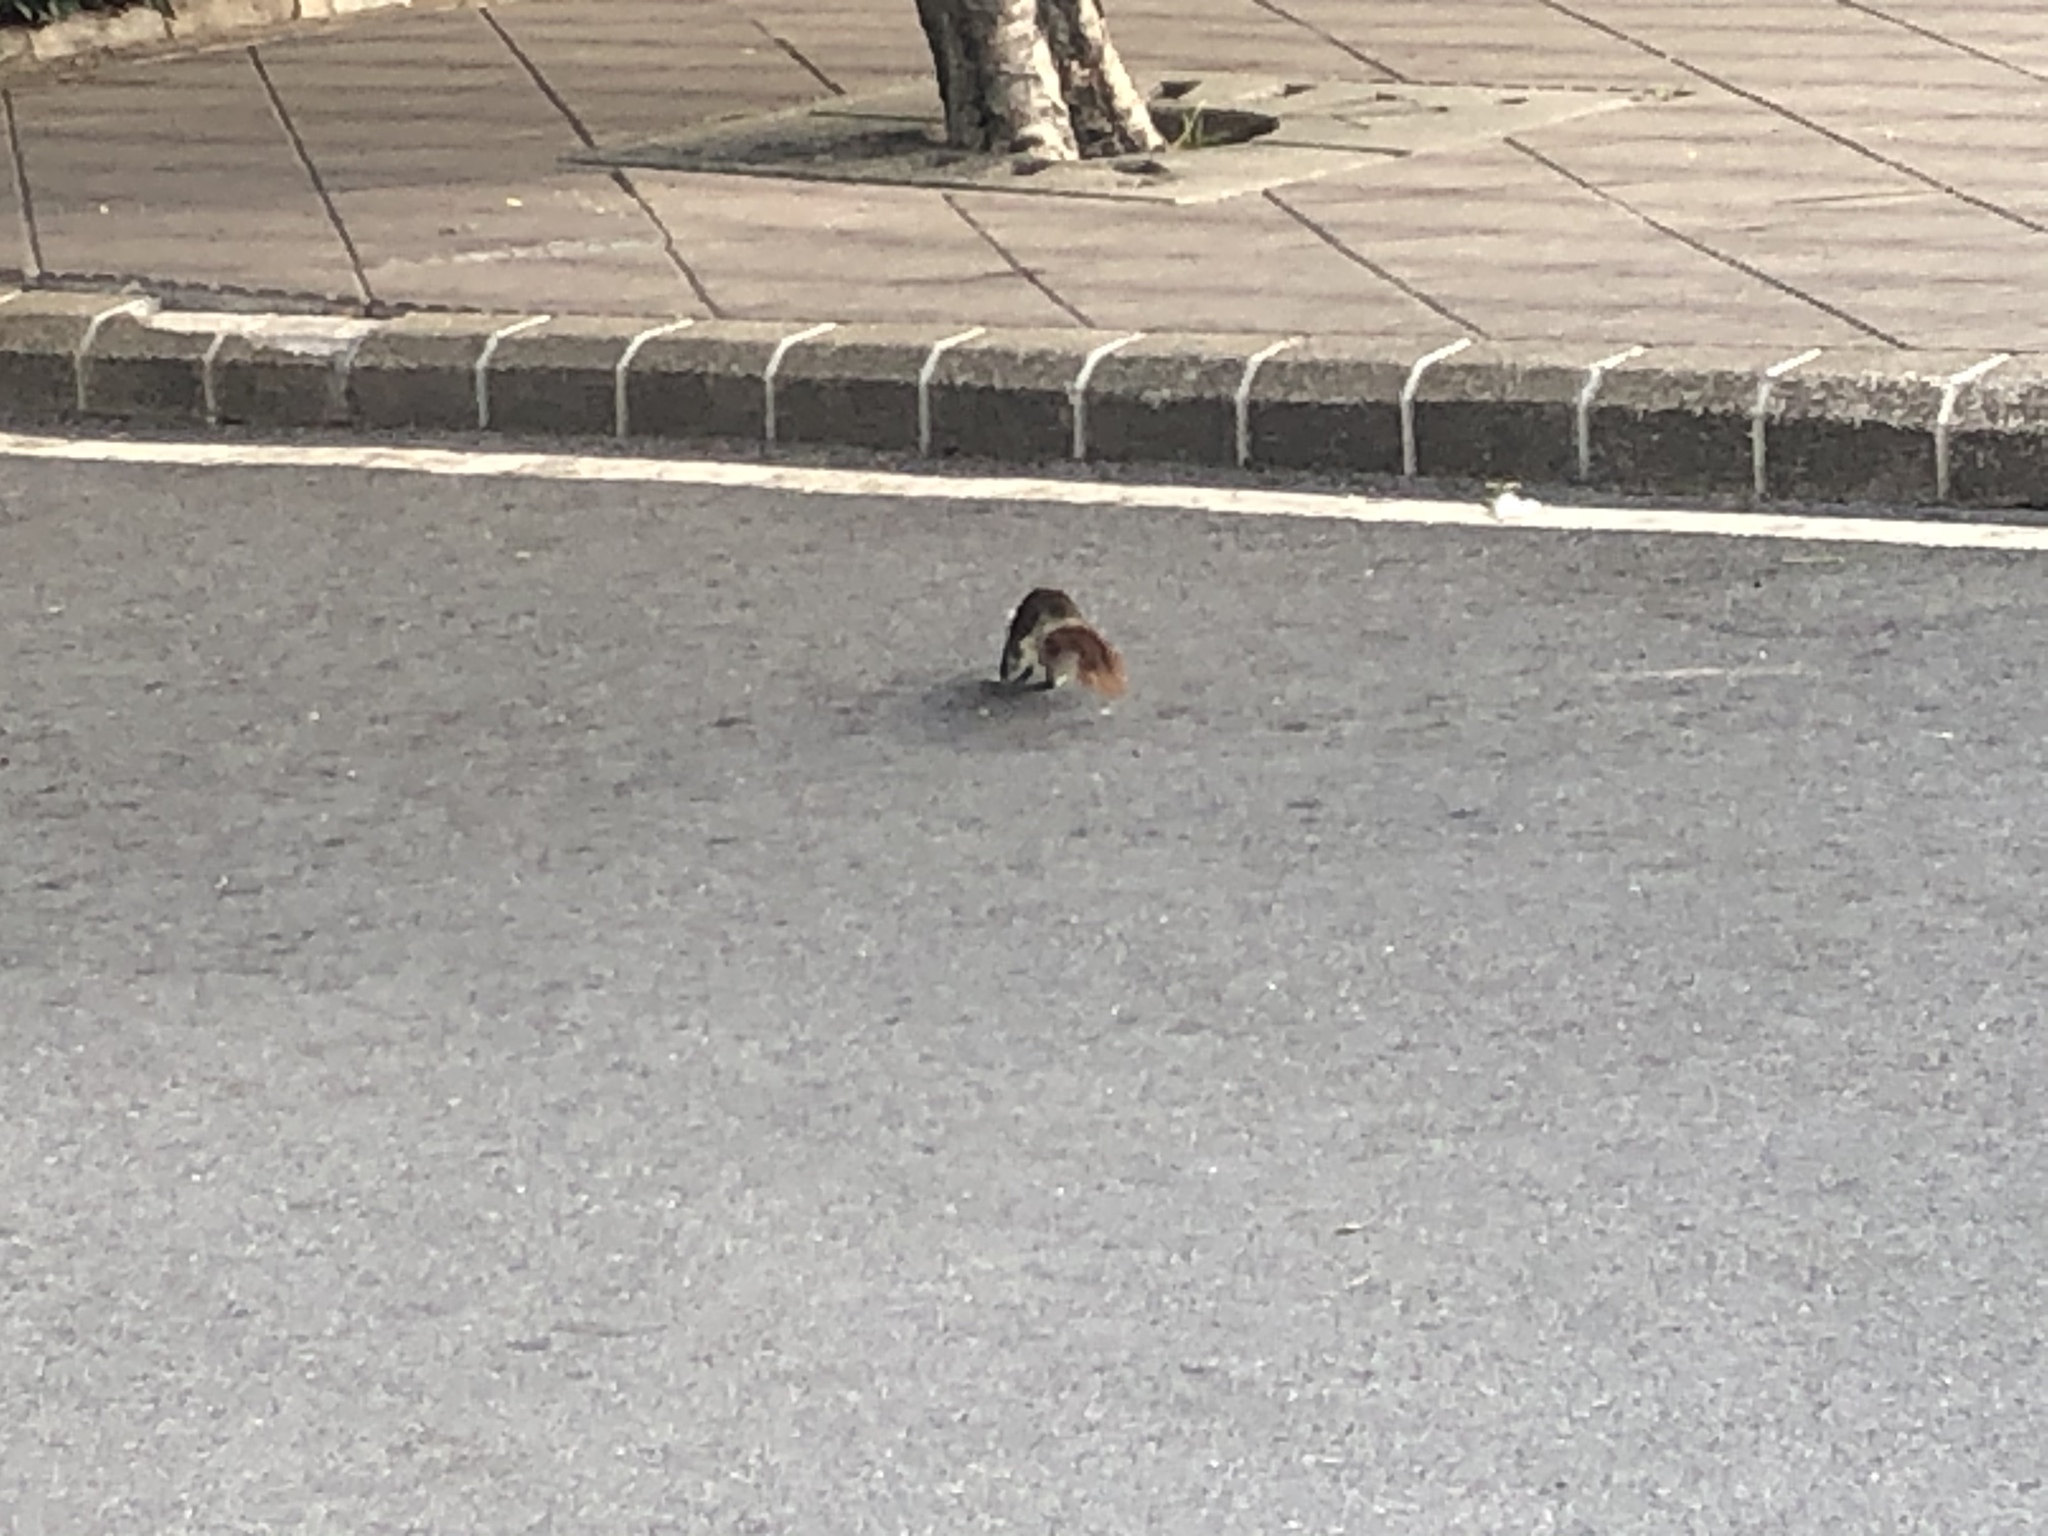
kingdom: Animalia
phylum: Chordata
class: Mammalia
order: Rodentia
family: Sciuridae
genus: Callosciurus
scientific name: Callosciurus finlaysonii
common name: Finlayson's squirrel
